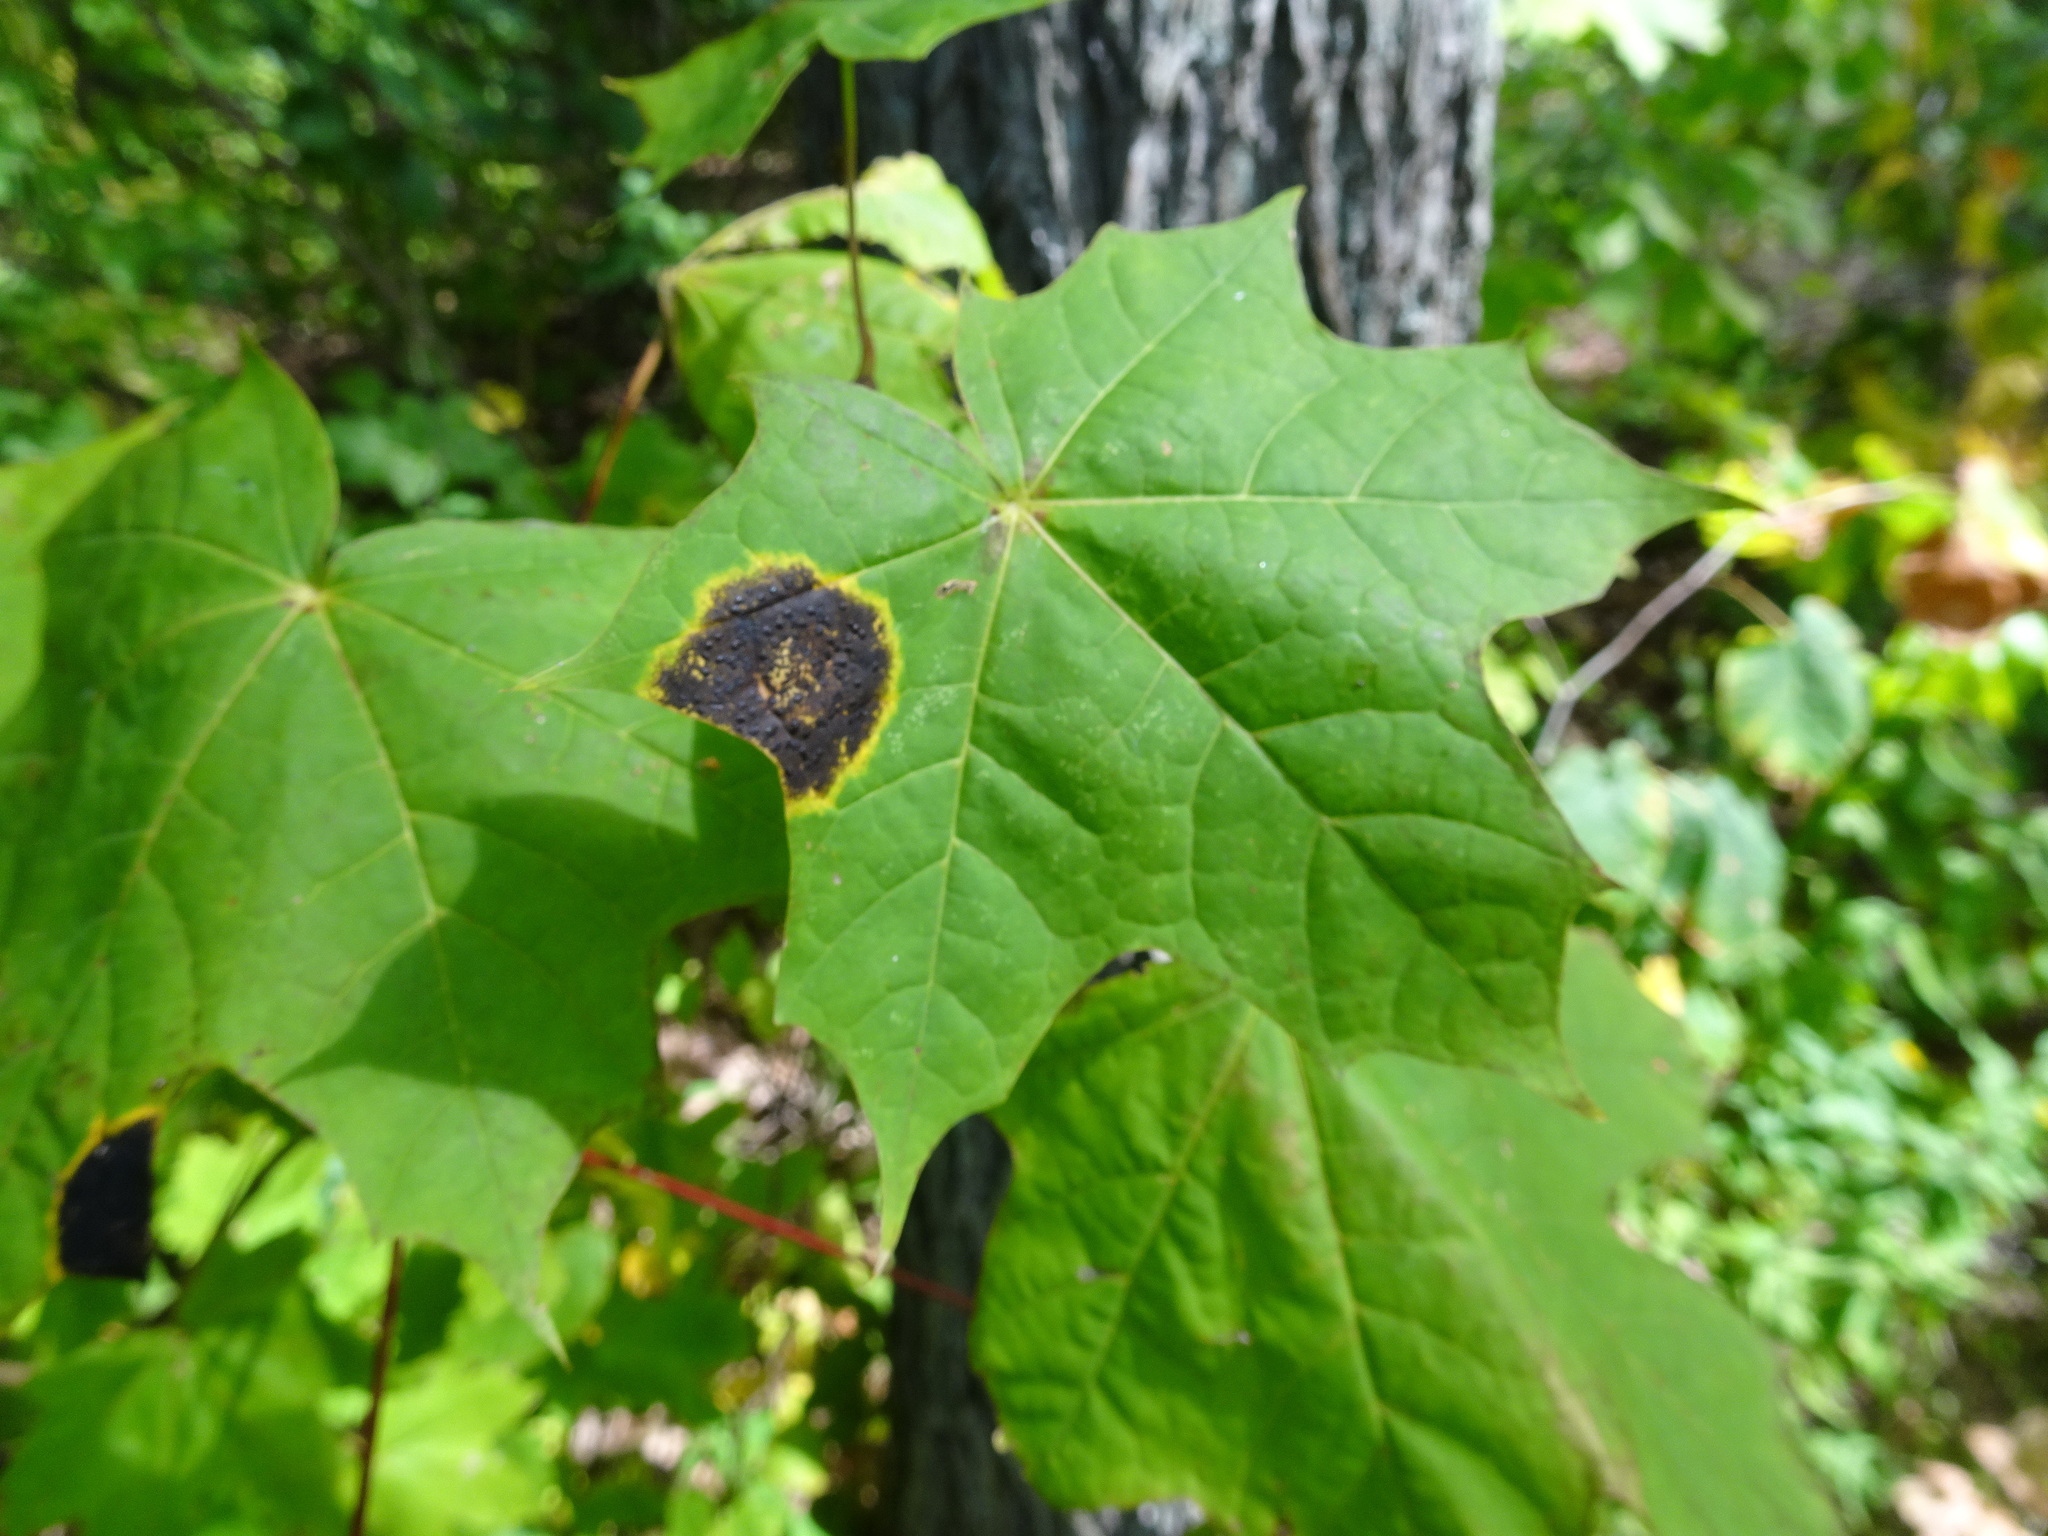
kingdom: Fungi
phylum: Ascomycota
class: Leotiomycetes
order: Rhytismatales
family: Rhytismataceae
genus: Rhytisma
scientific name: Rhytisma acerinum
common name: European tar spot
